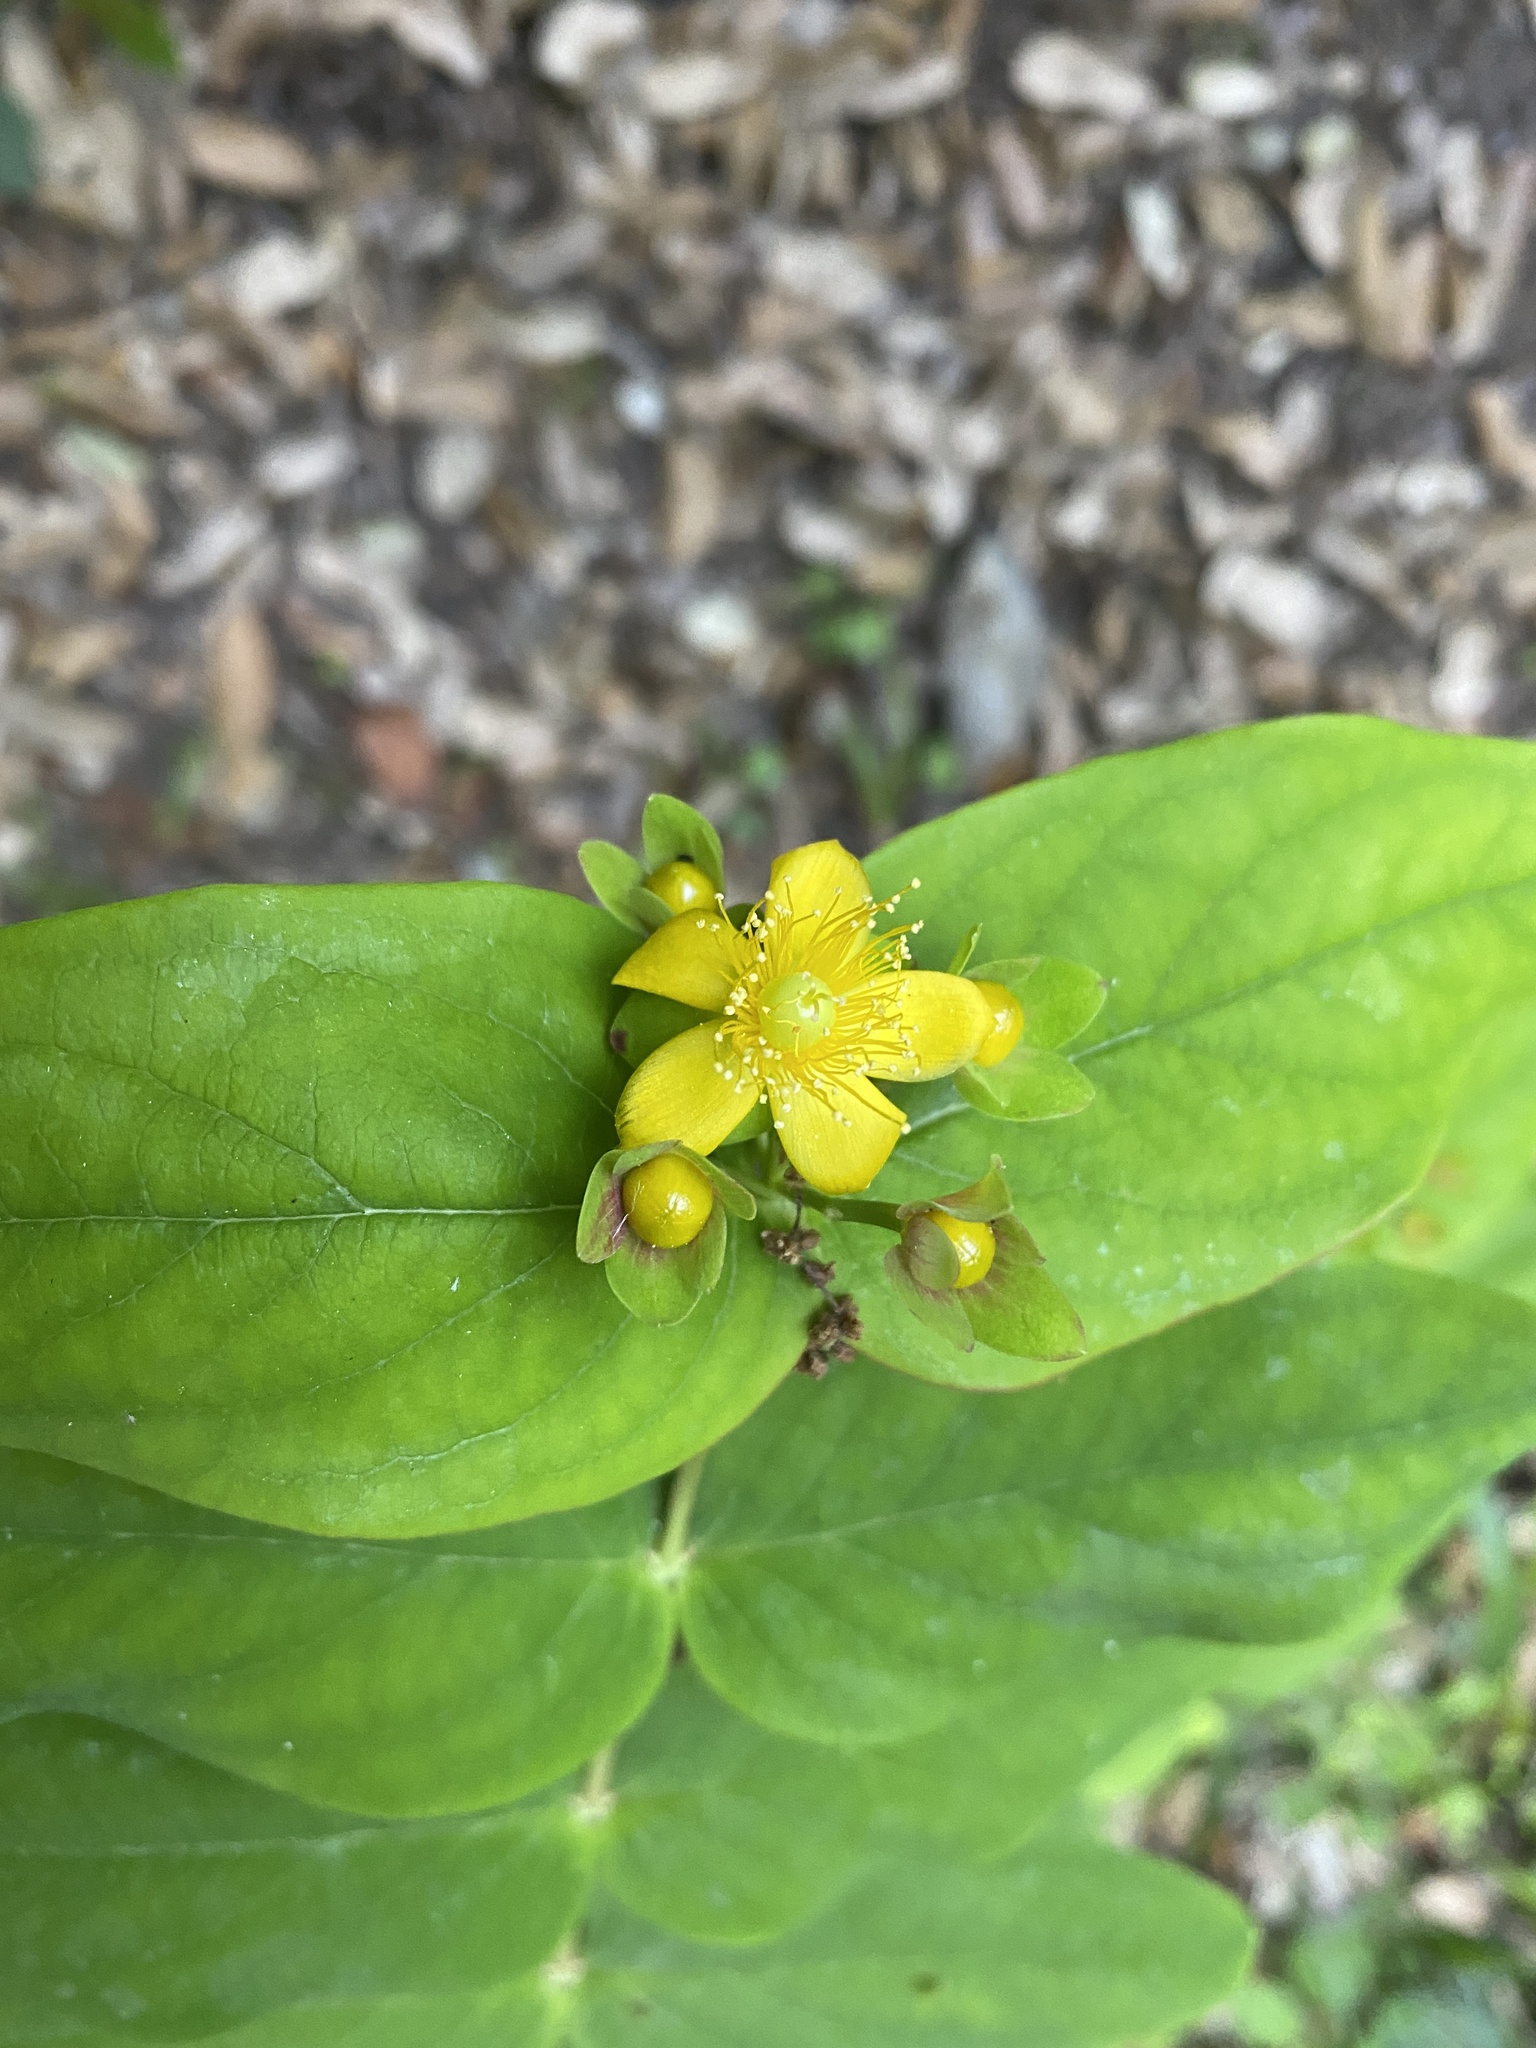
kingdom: Plantae
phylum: Tracheophyta
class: Magnoliopsida
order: Malpighiales
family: Hypericaceae
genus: Hypericum
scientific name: Hypericum androsaemum
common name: Sweet-amber
